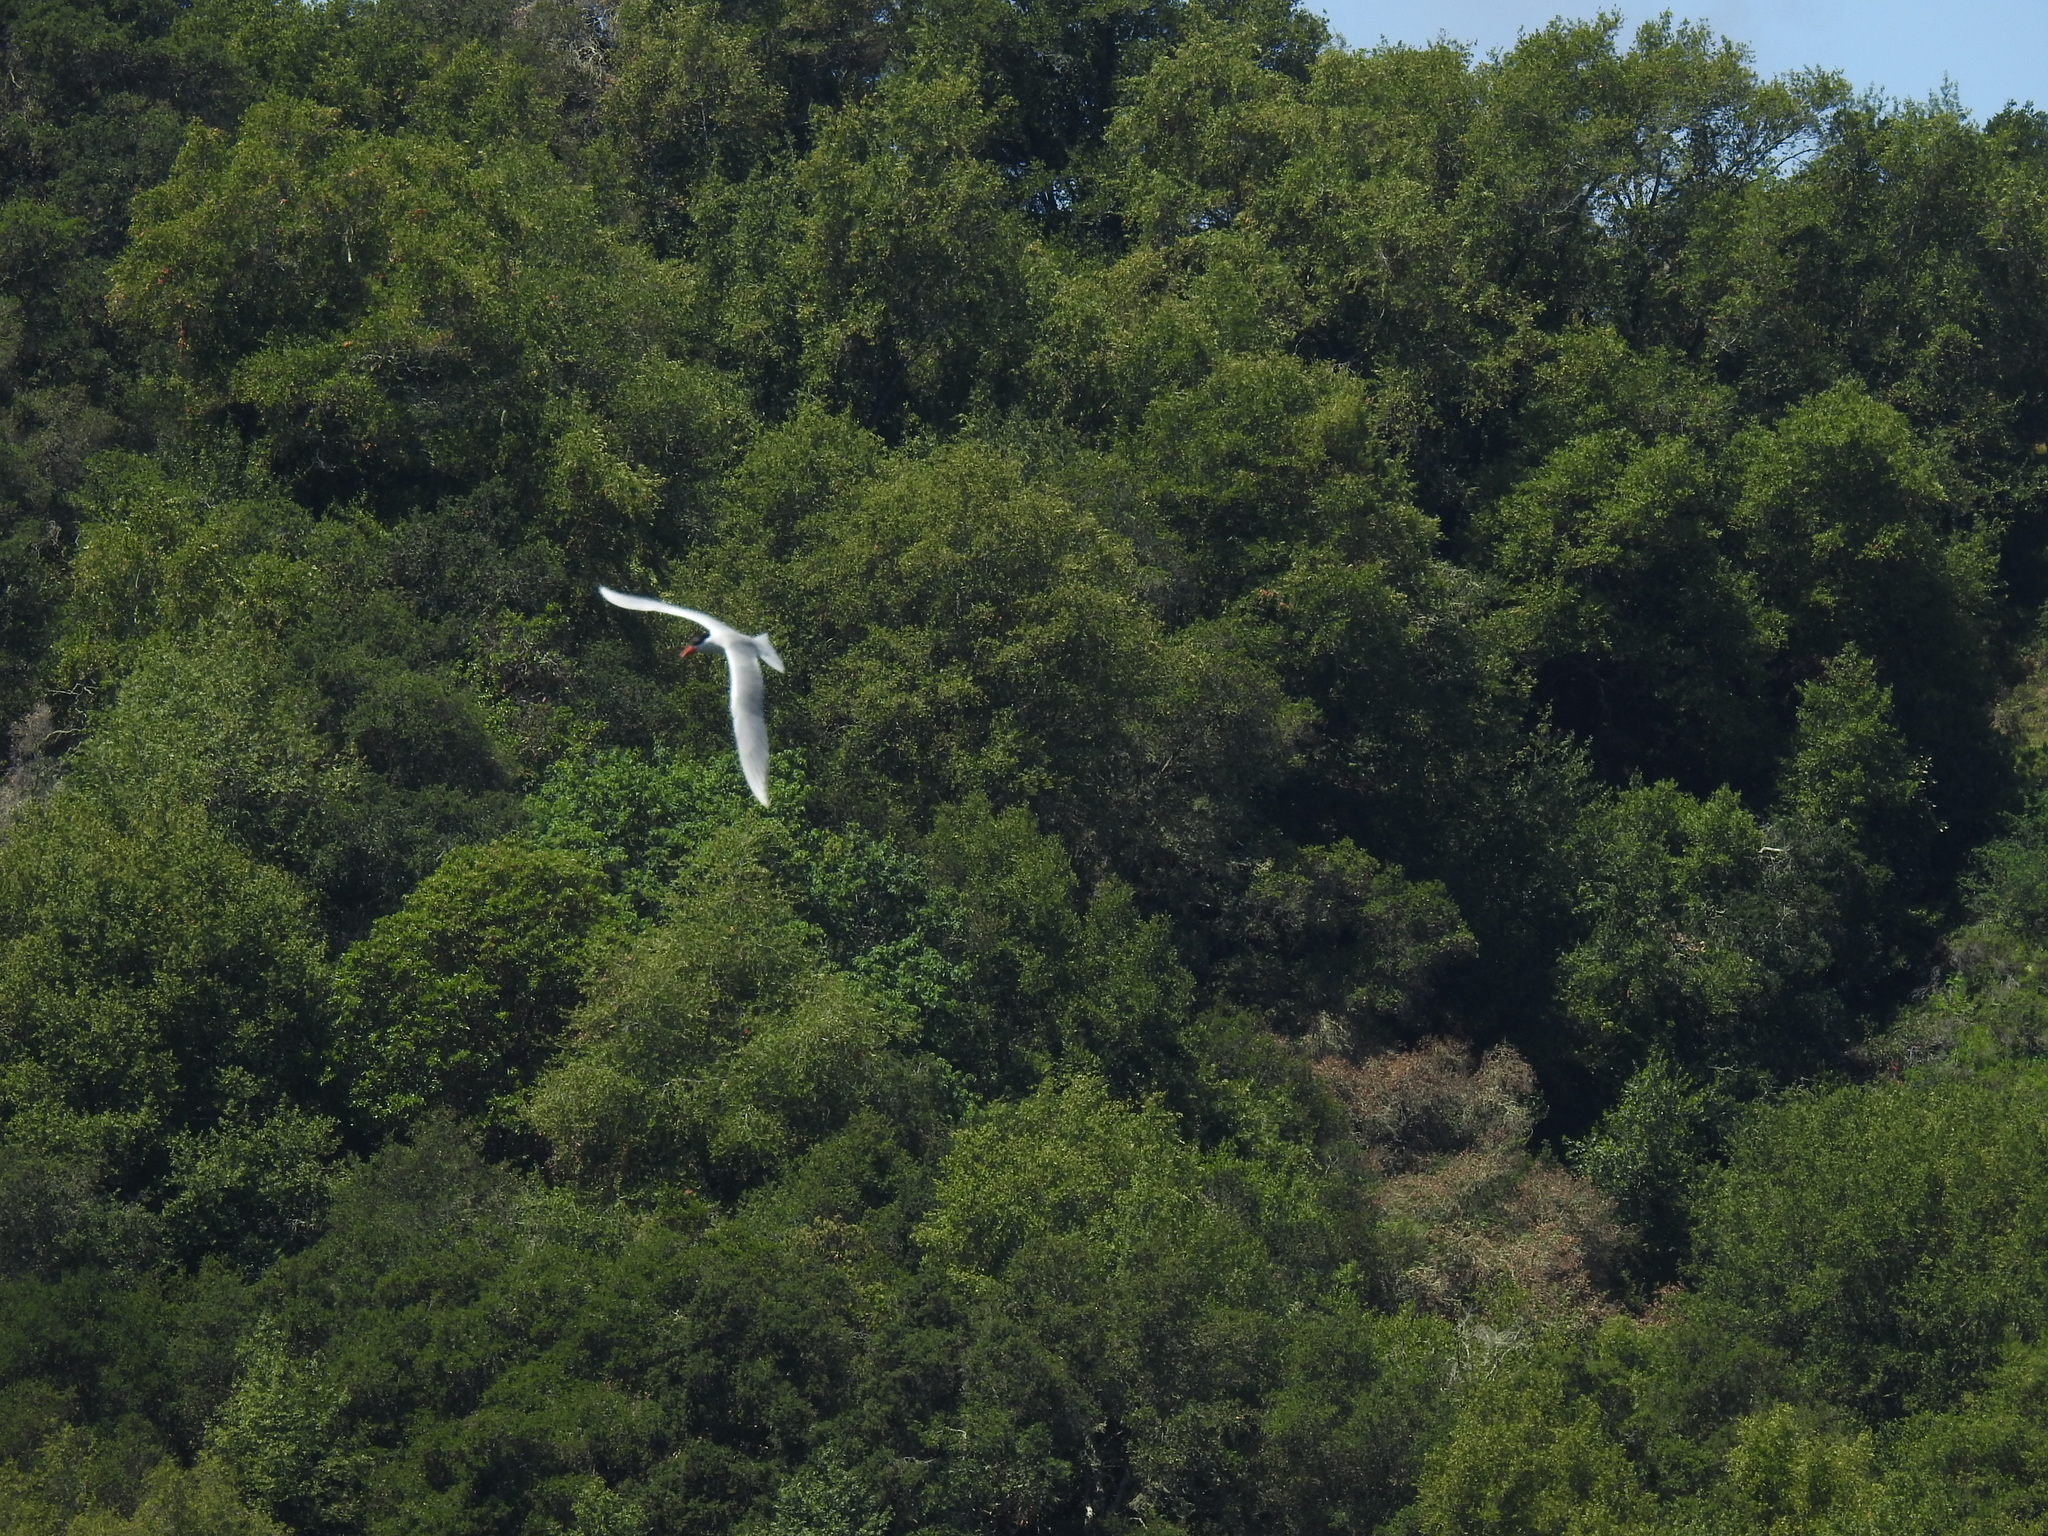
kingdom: Animalia
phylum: Chordata
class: Aves
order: Charadriiformes
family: Laridae
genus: Hydroprogne
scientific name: Hydroprogne caspia
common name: Caspian tern
